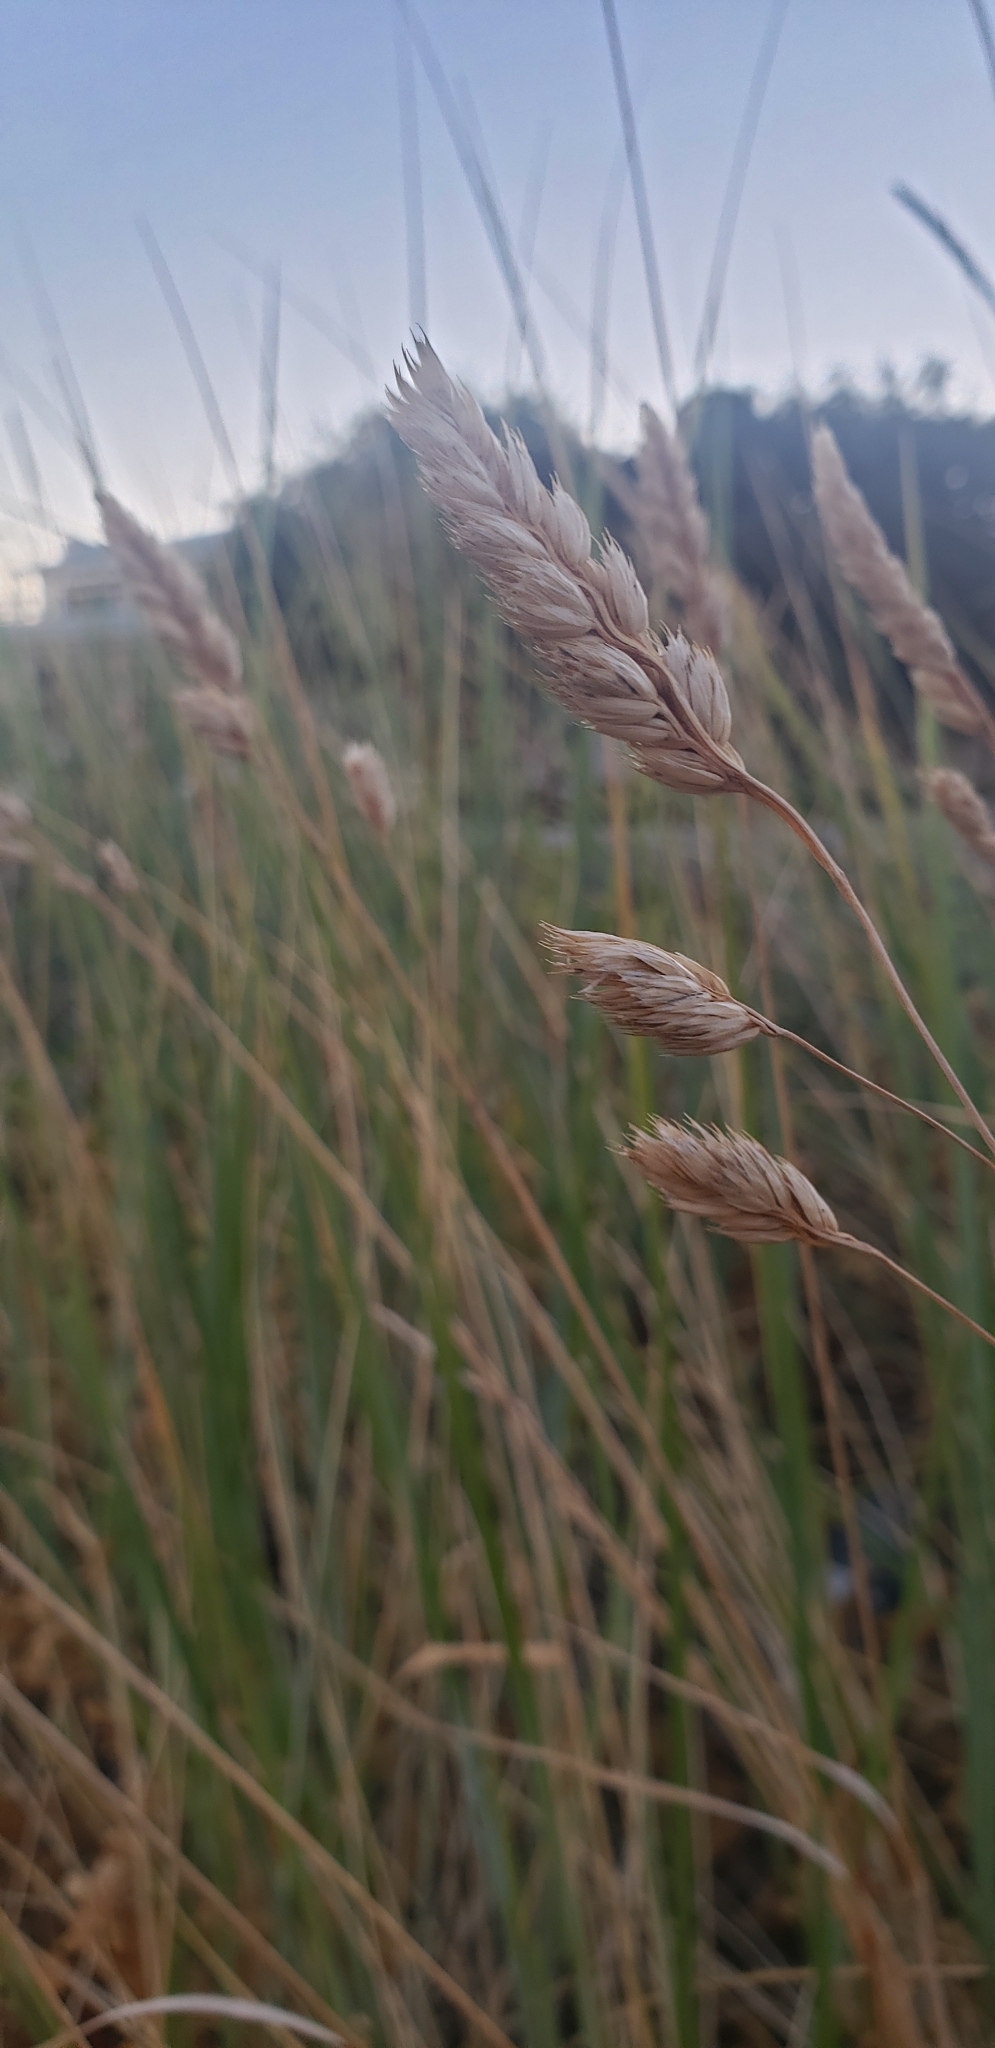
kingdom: Plantae
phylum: Tracheophyta
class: Liliopsida
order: Poales
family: Poaceae
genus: Dactylis
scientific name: Dactylis glomerata
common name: Orchardgrass
